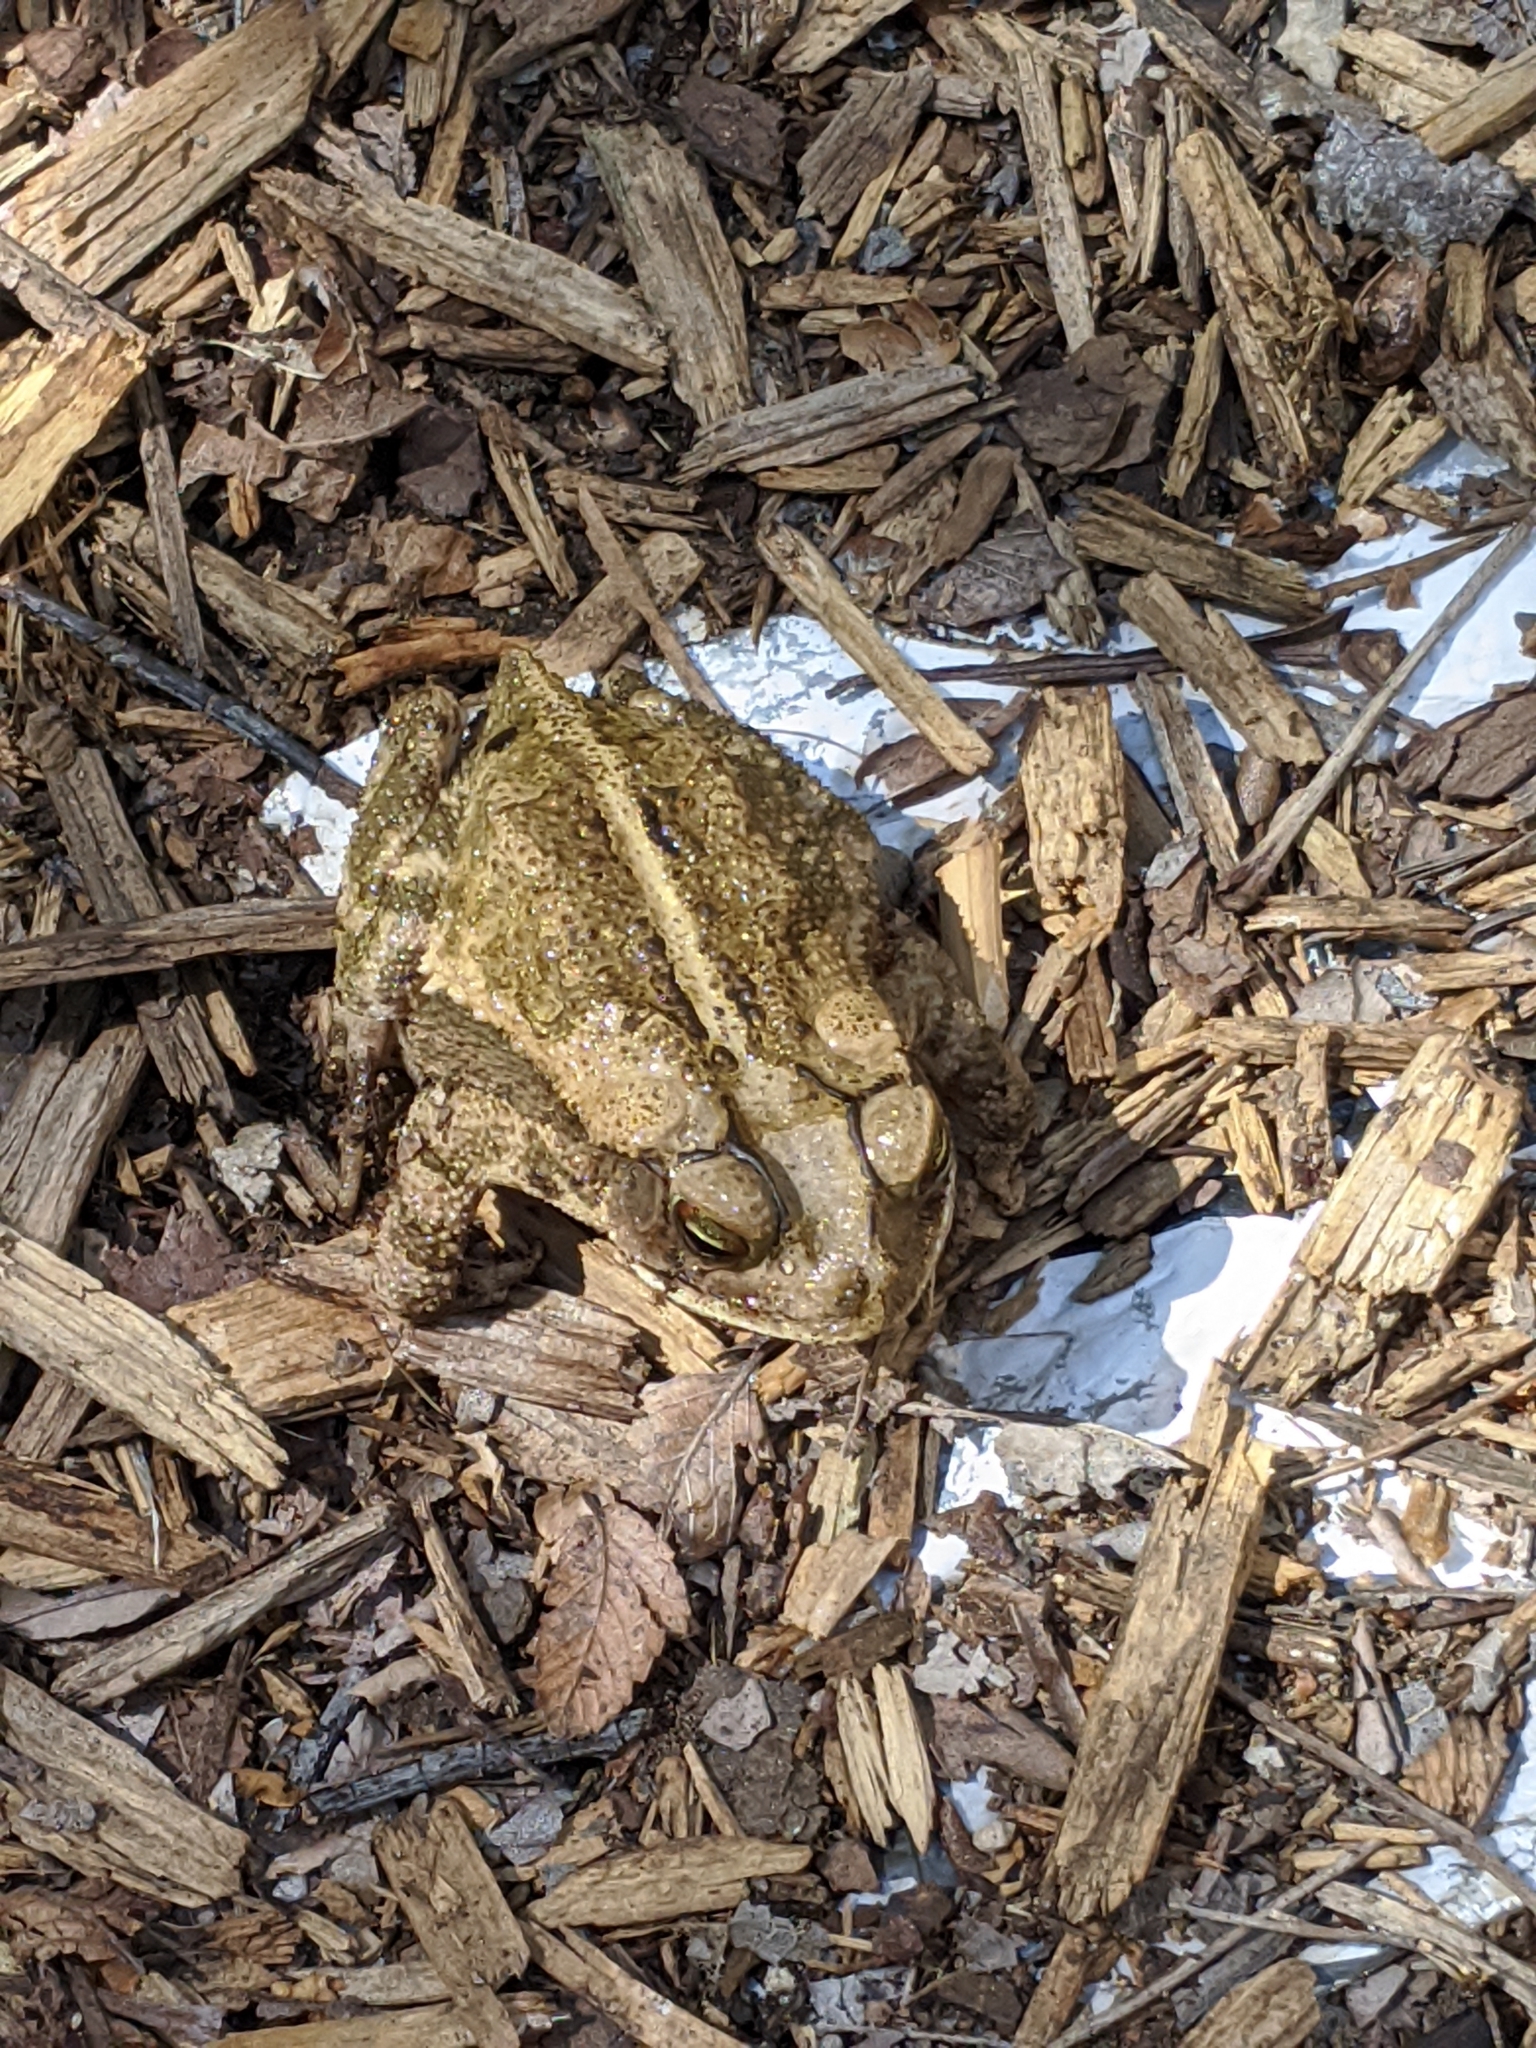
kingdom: Animalia
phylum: Chordata
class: Amphibia
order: Anura
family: Bufonidae
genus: Incilius
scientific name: Incilius nebulifer
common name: Gulf coast toad
